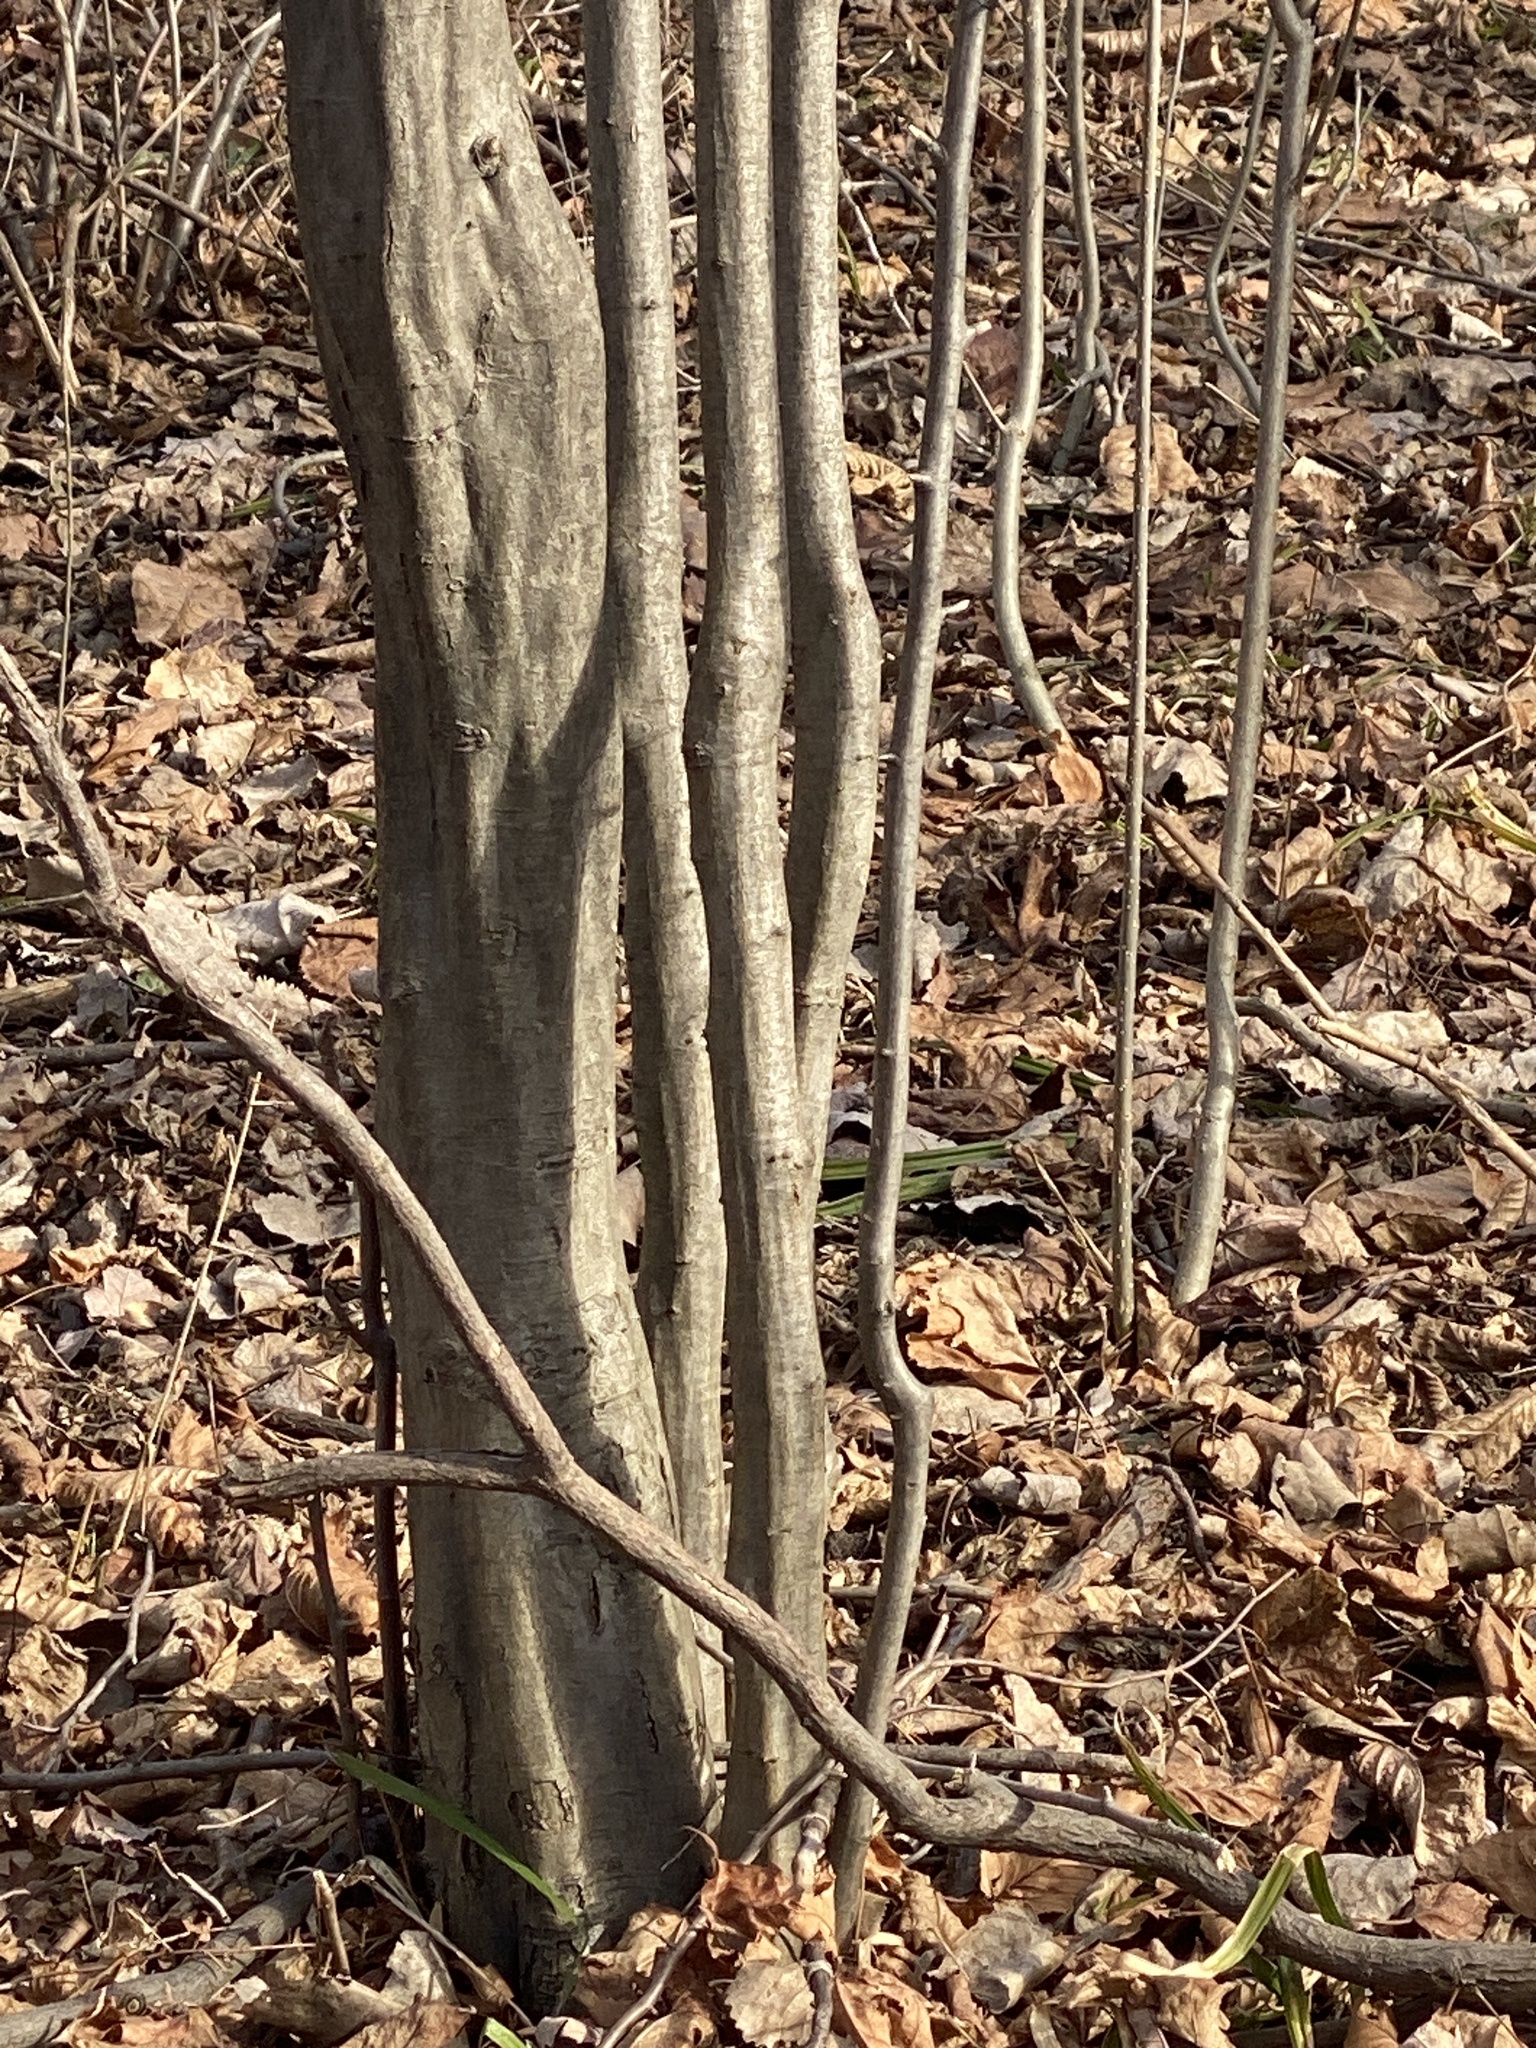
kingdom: Plantae
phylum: Tracheophyta
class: Magnoliopsida
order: Fagales
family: Betulaceae
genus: Carpinus
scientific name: Carpinus caroliniana
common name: American hornbeam
